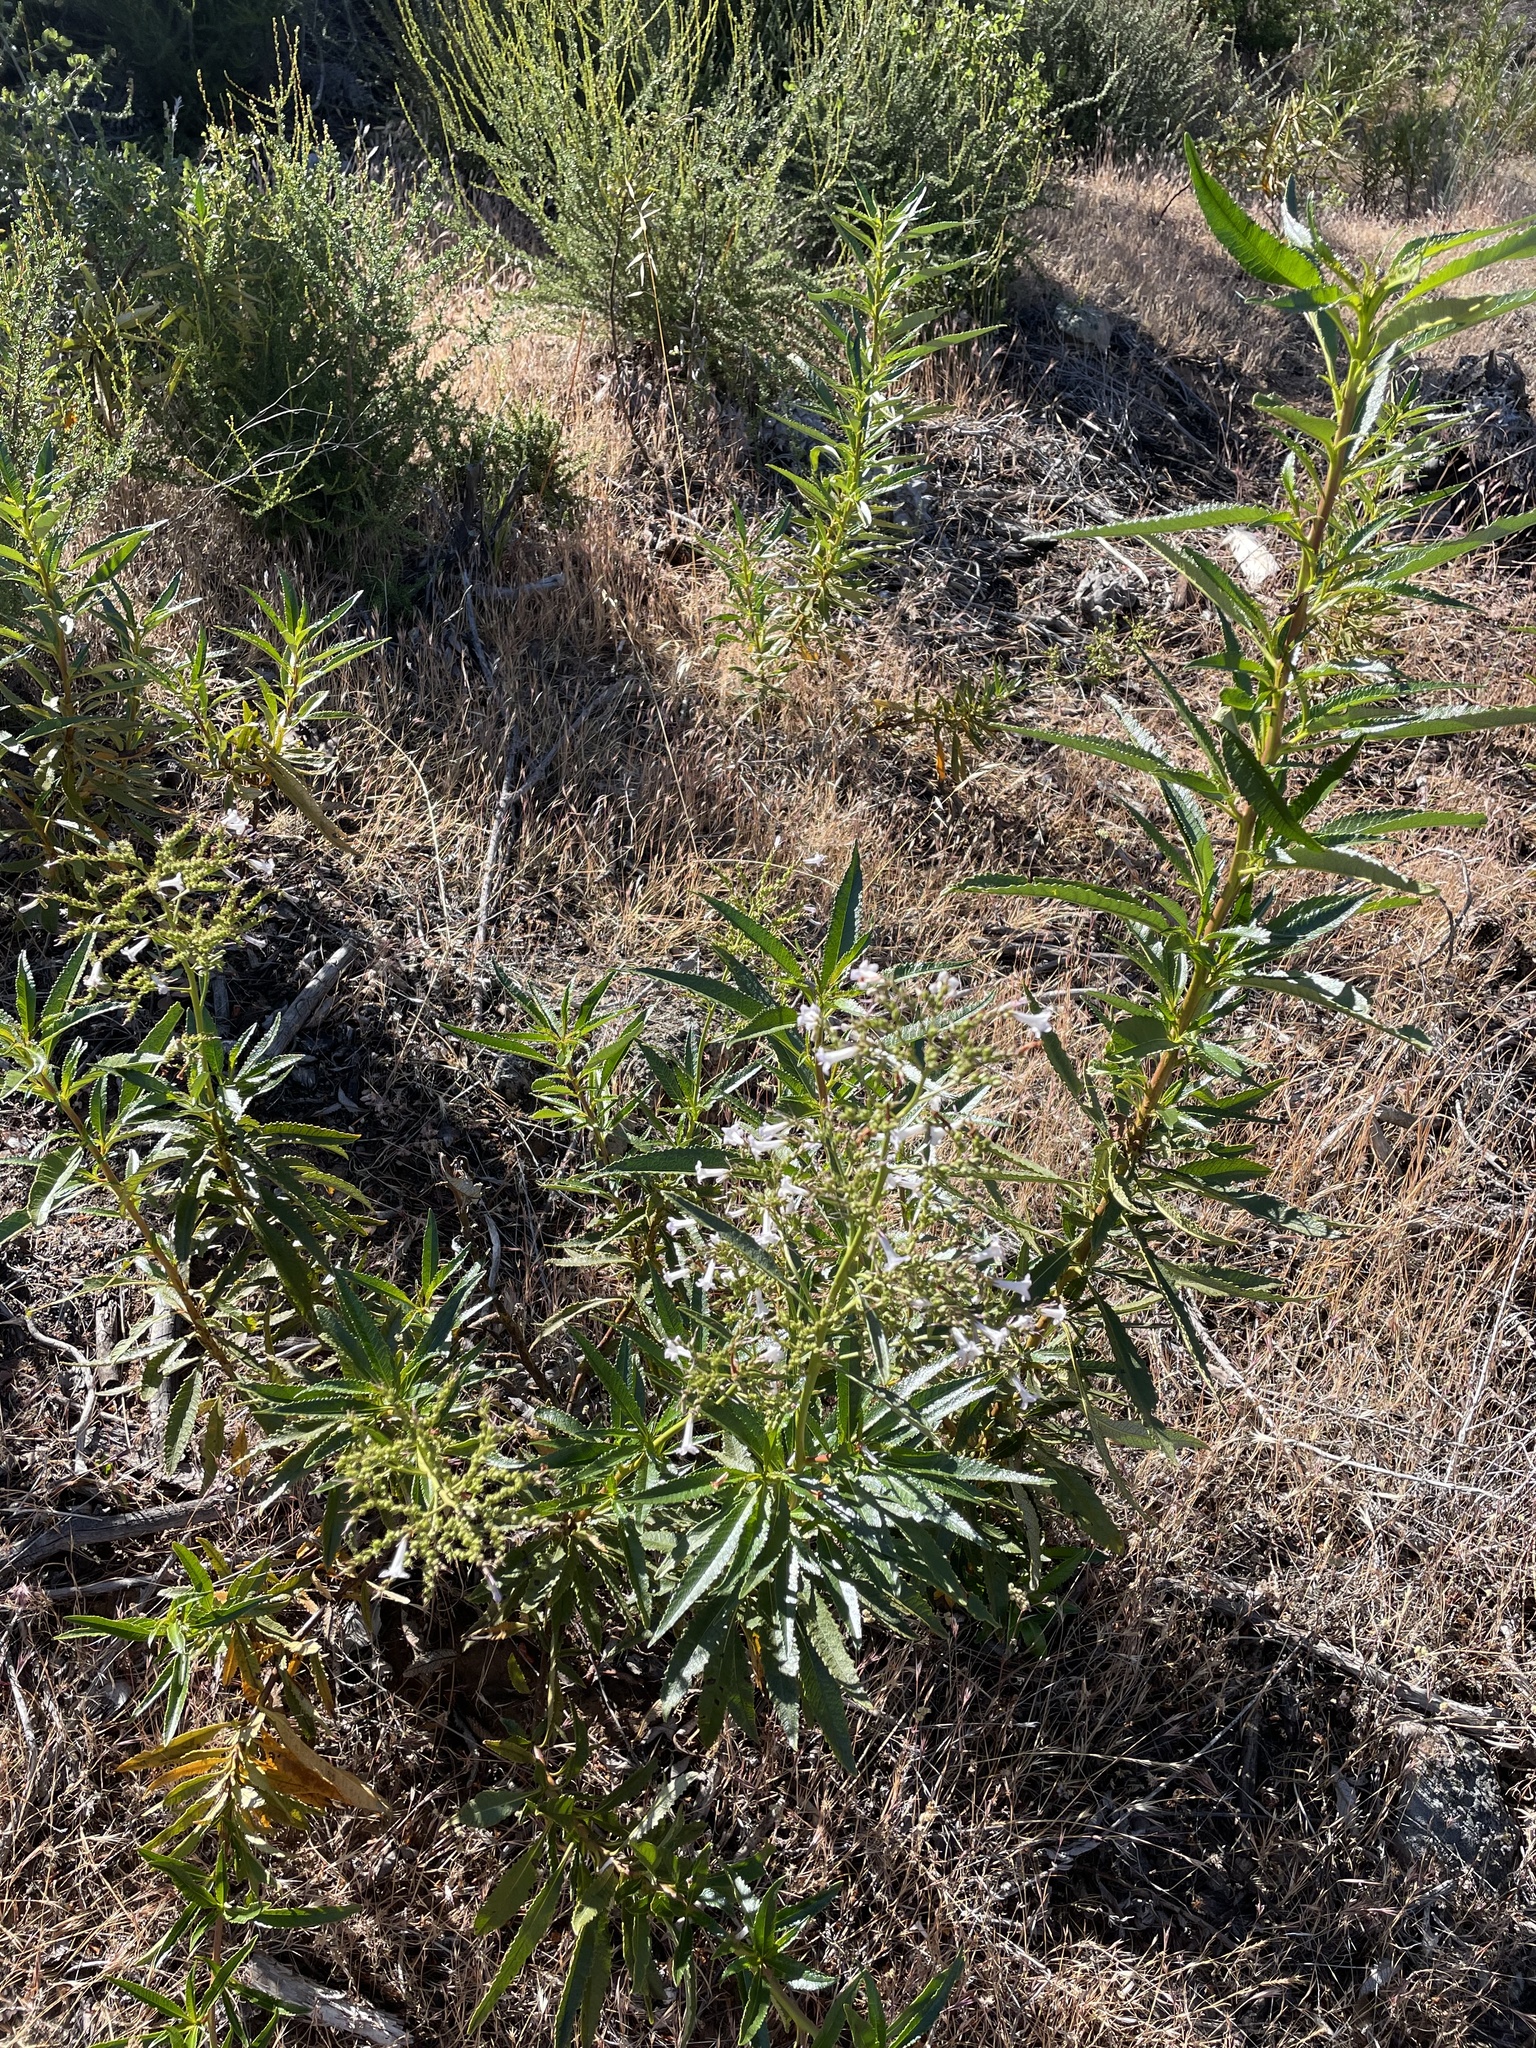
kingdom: Plantae
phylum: Tracheophyta
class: Magnoliopsida
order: Boraginales
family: Namaceae
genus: Eriodictyon
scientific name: Eriodictyon californicum
